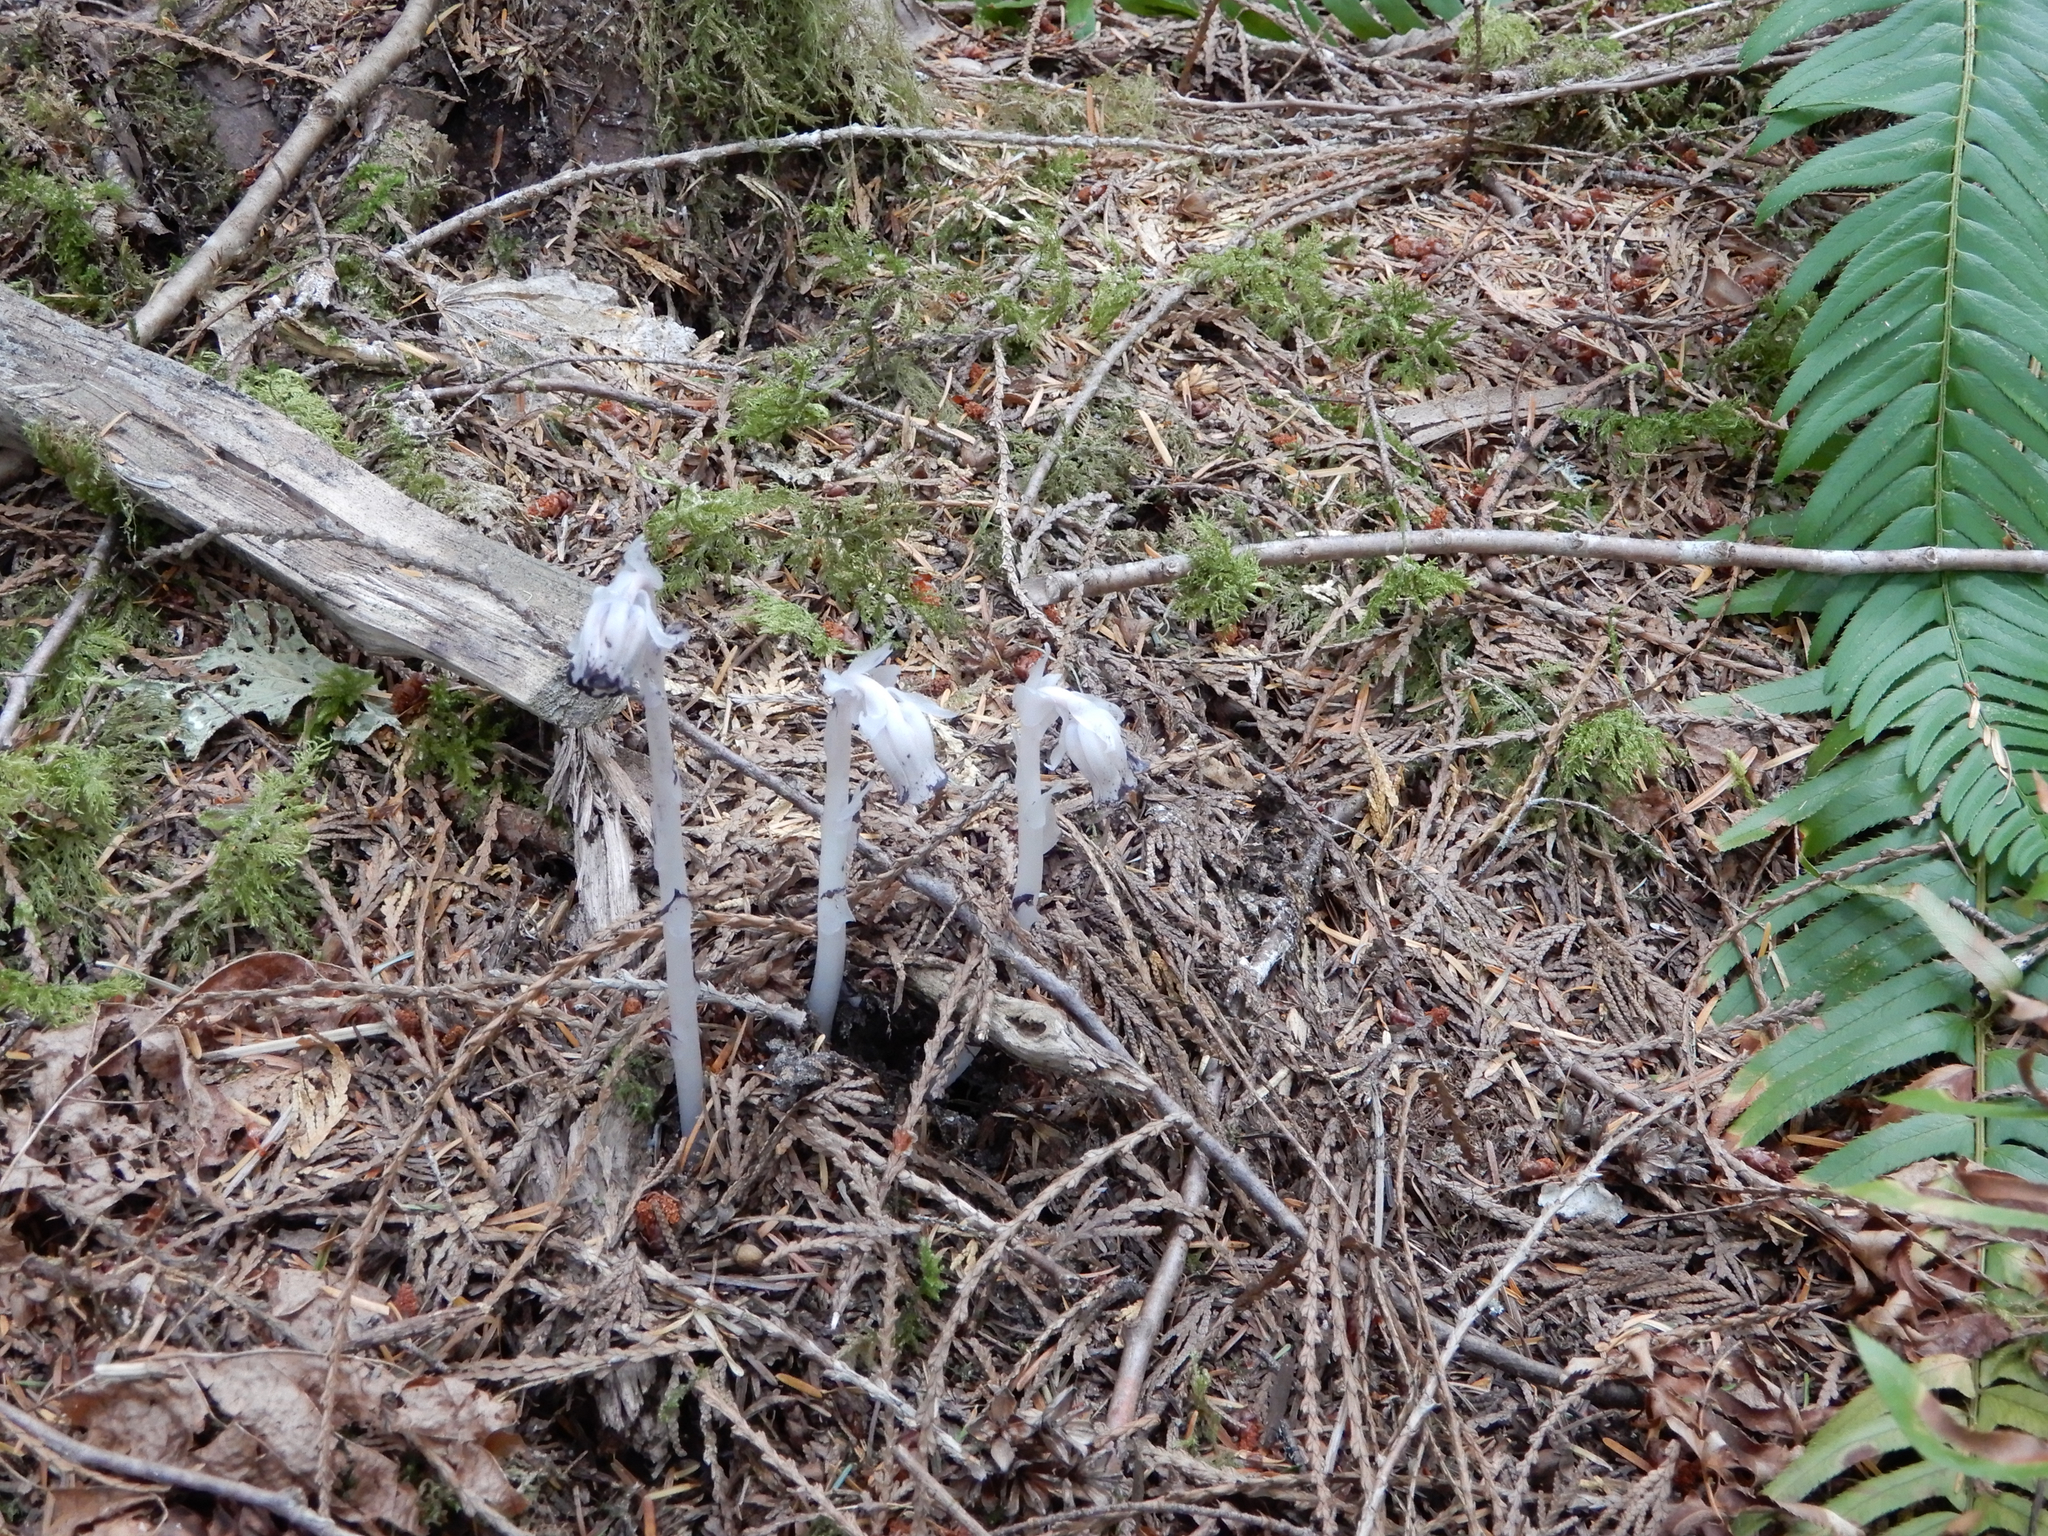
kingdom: Plantae
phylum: Tracheophyta
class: Magnoliopsida
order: Ericales
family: Ericaceae
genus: Monotropa
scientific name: Monotropa uniflora
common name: Convulsion root
